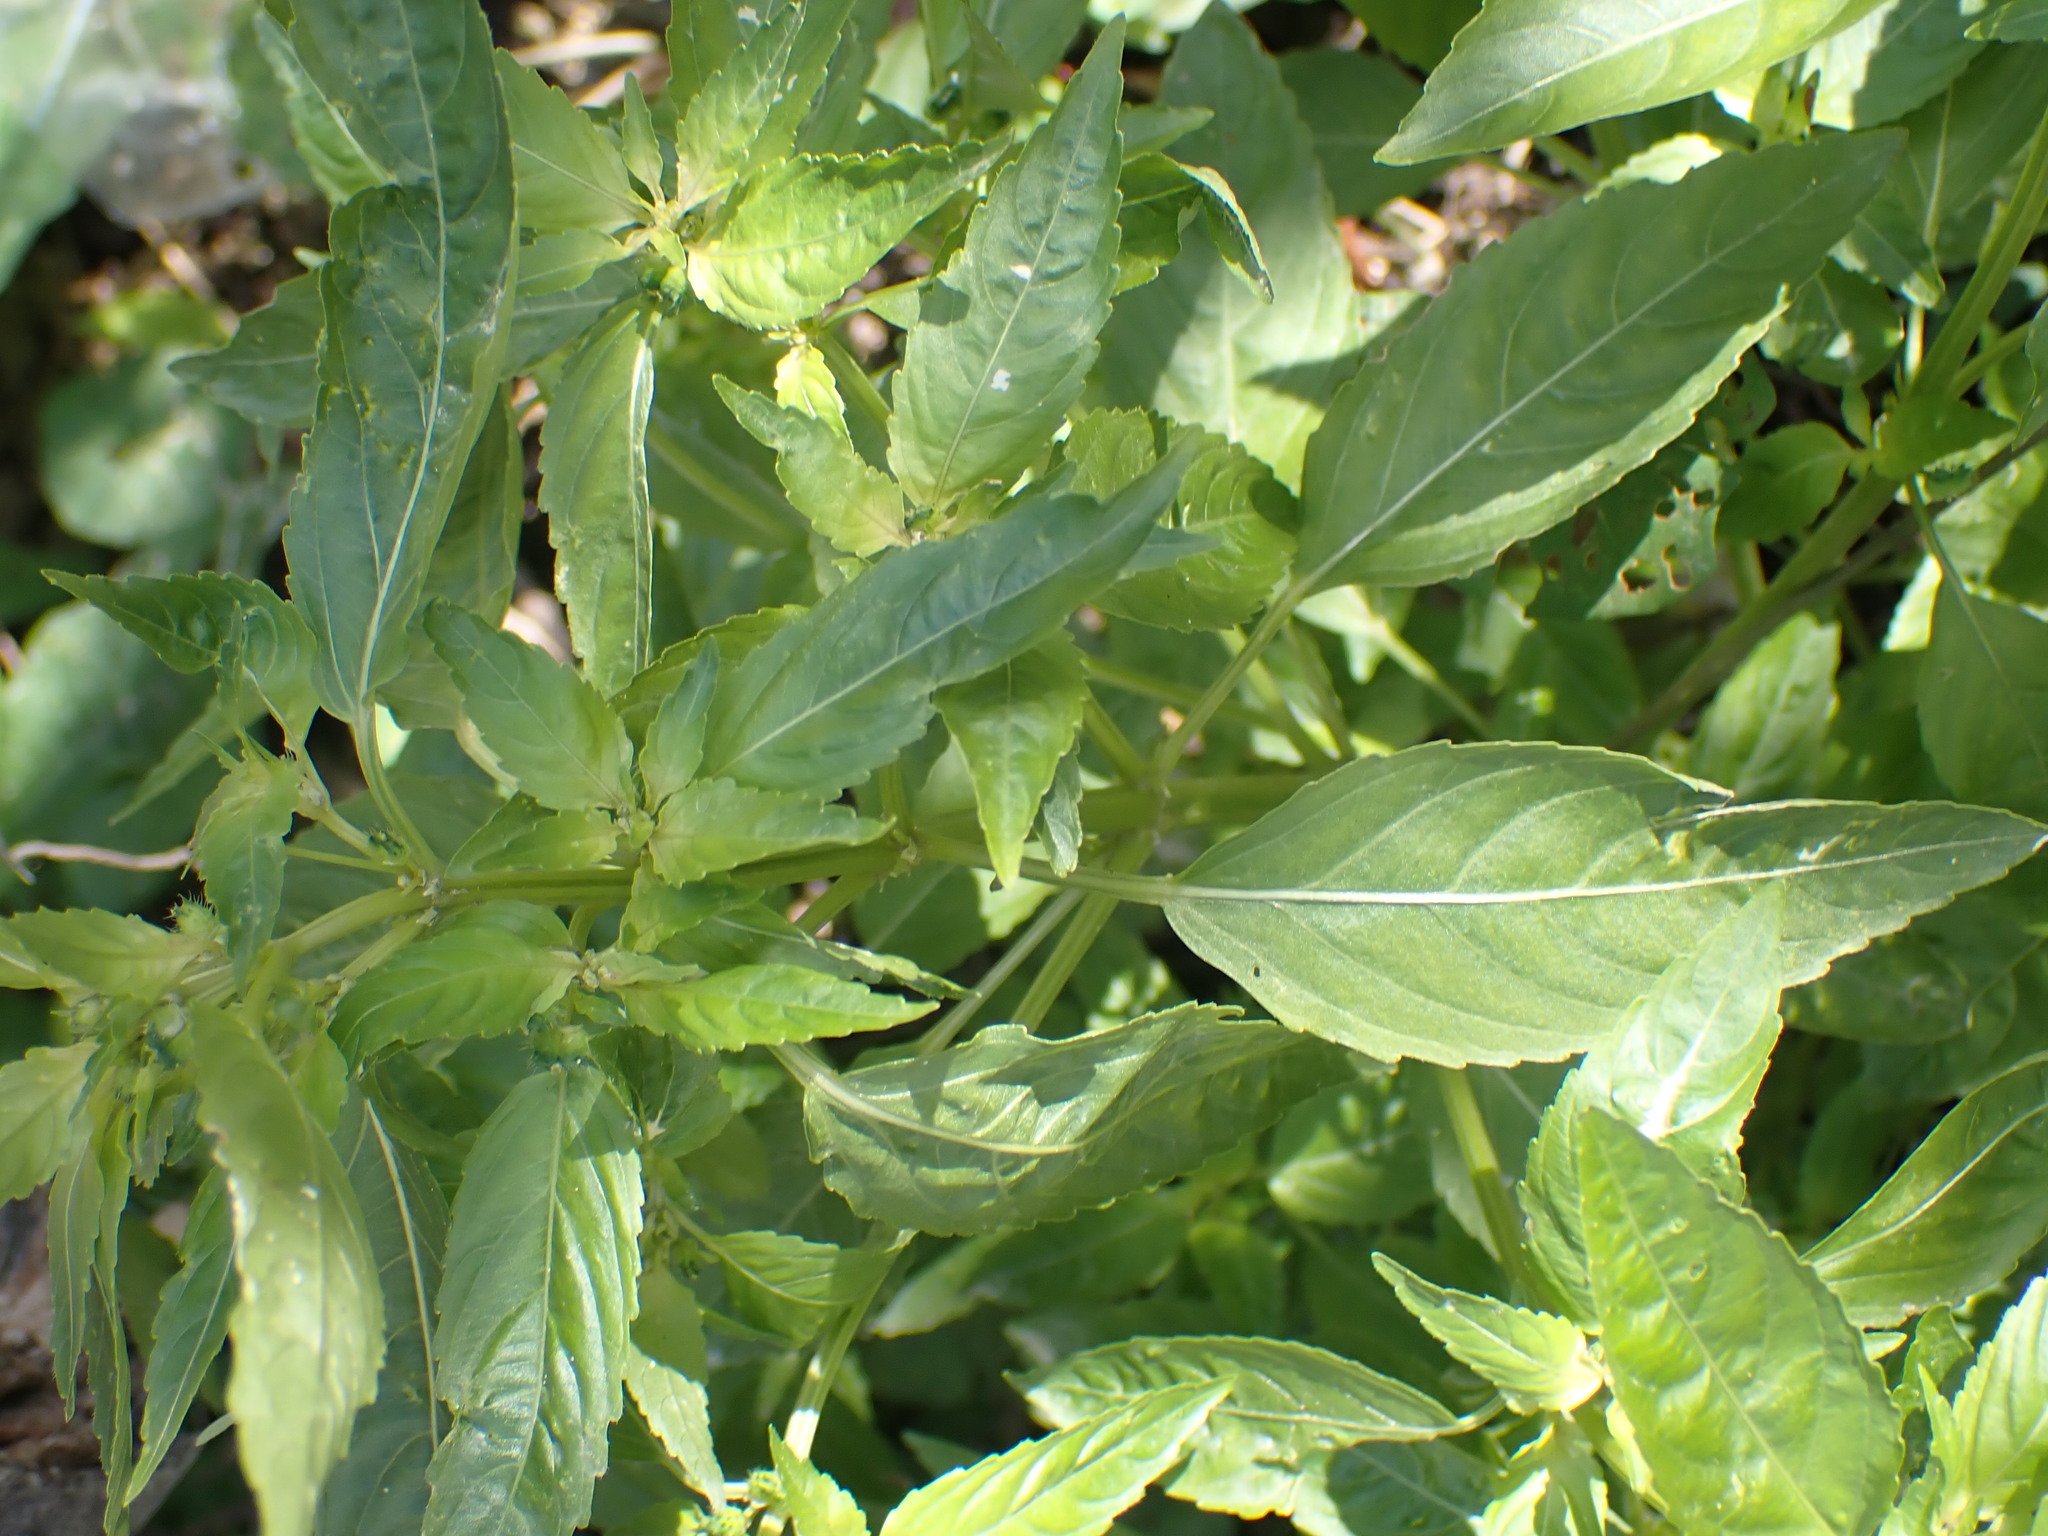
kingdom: Plantae
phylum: Tracheophyta
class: Magnoliopsida
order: Malpighiales
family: Euphorbiaceae
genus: Mercurialis
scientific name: Mercurialis annua
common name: Annual mercury
